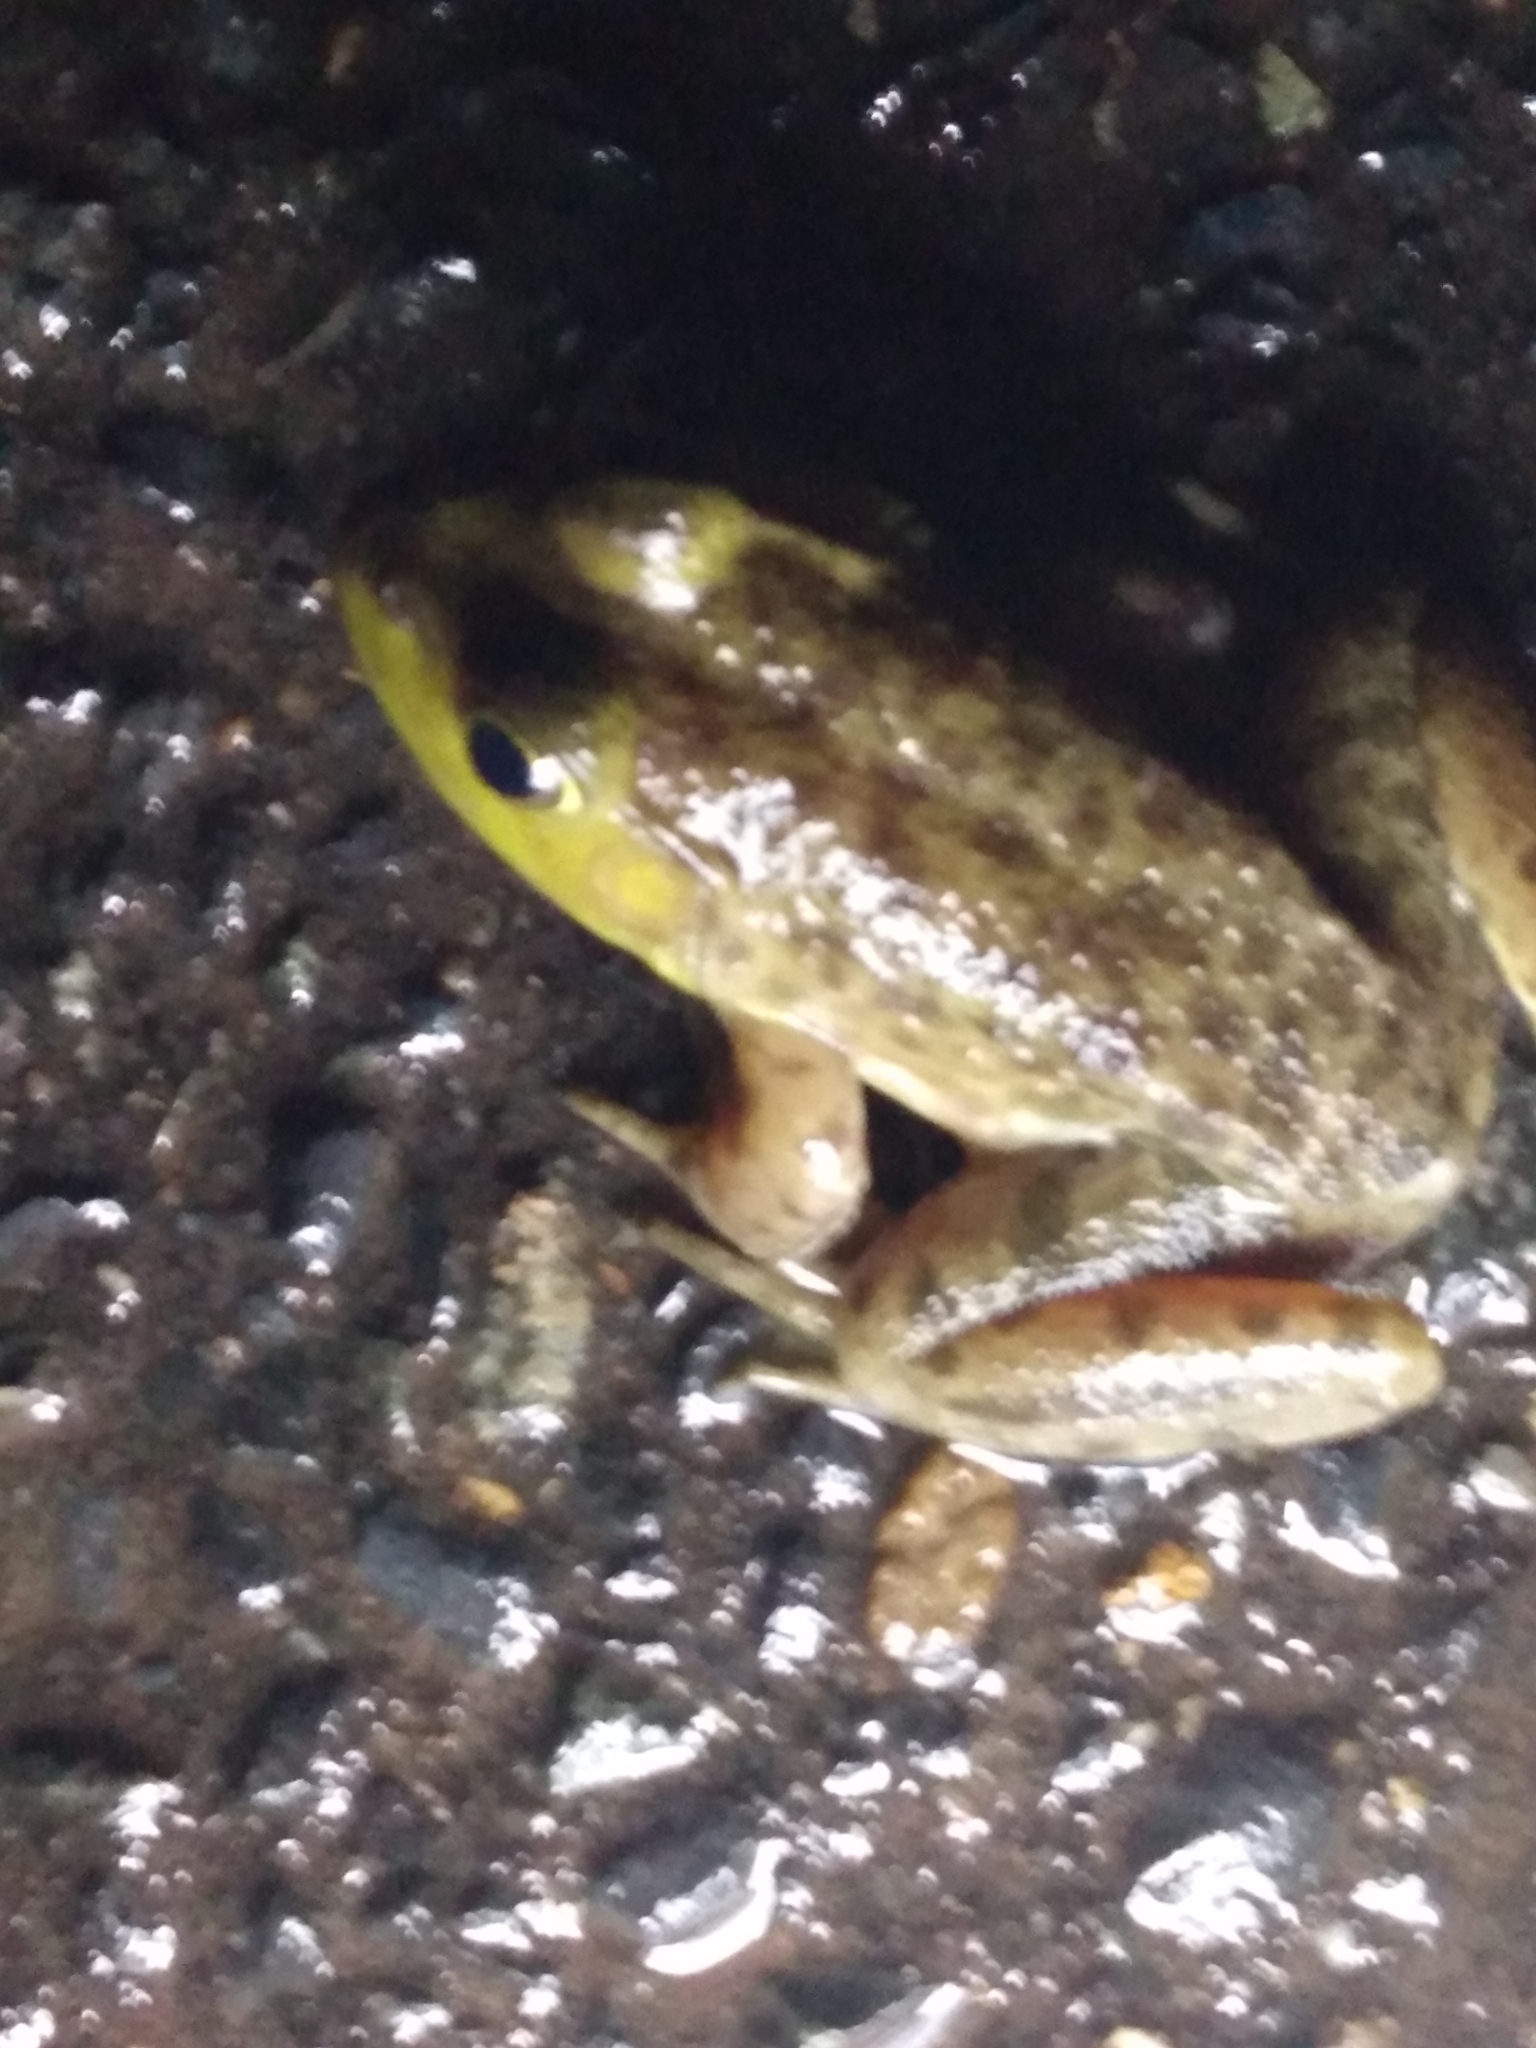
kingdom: Animalia
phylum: Chordata
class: Amphibia
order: Anura
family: Ranidae
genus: Lithobates
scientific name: Lithobates catesbeianus
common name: American bullfrog
